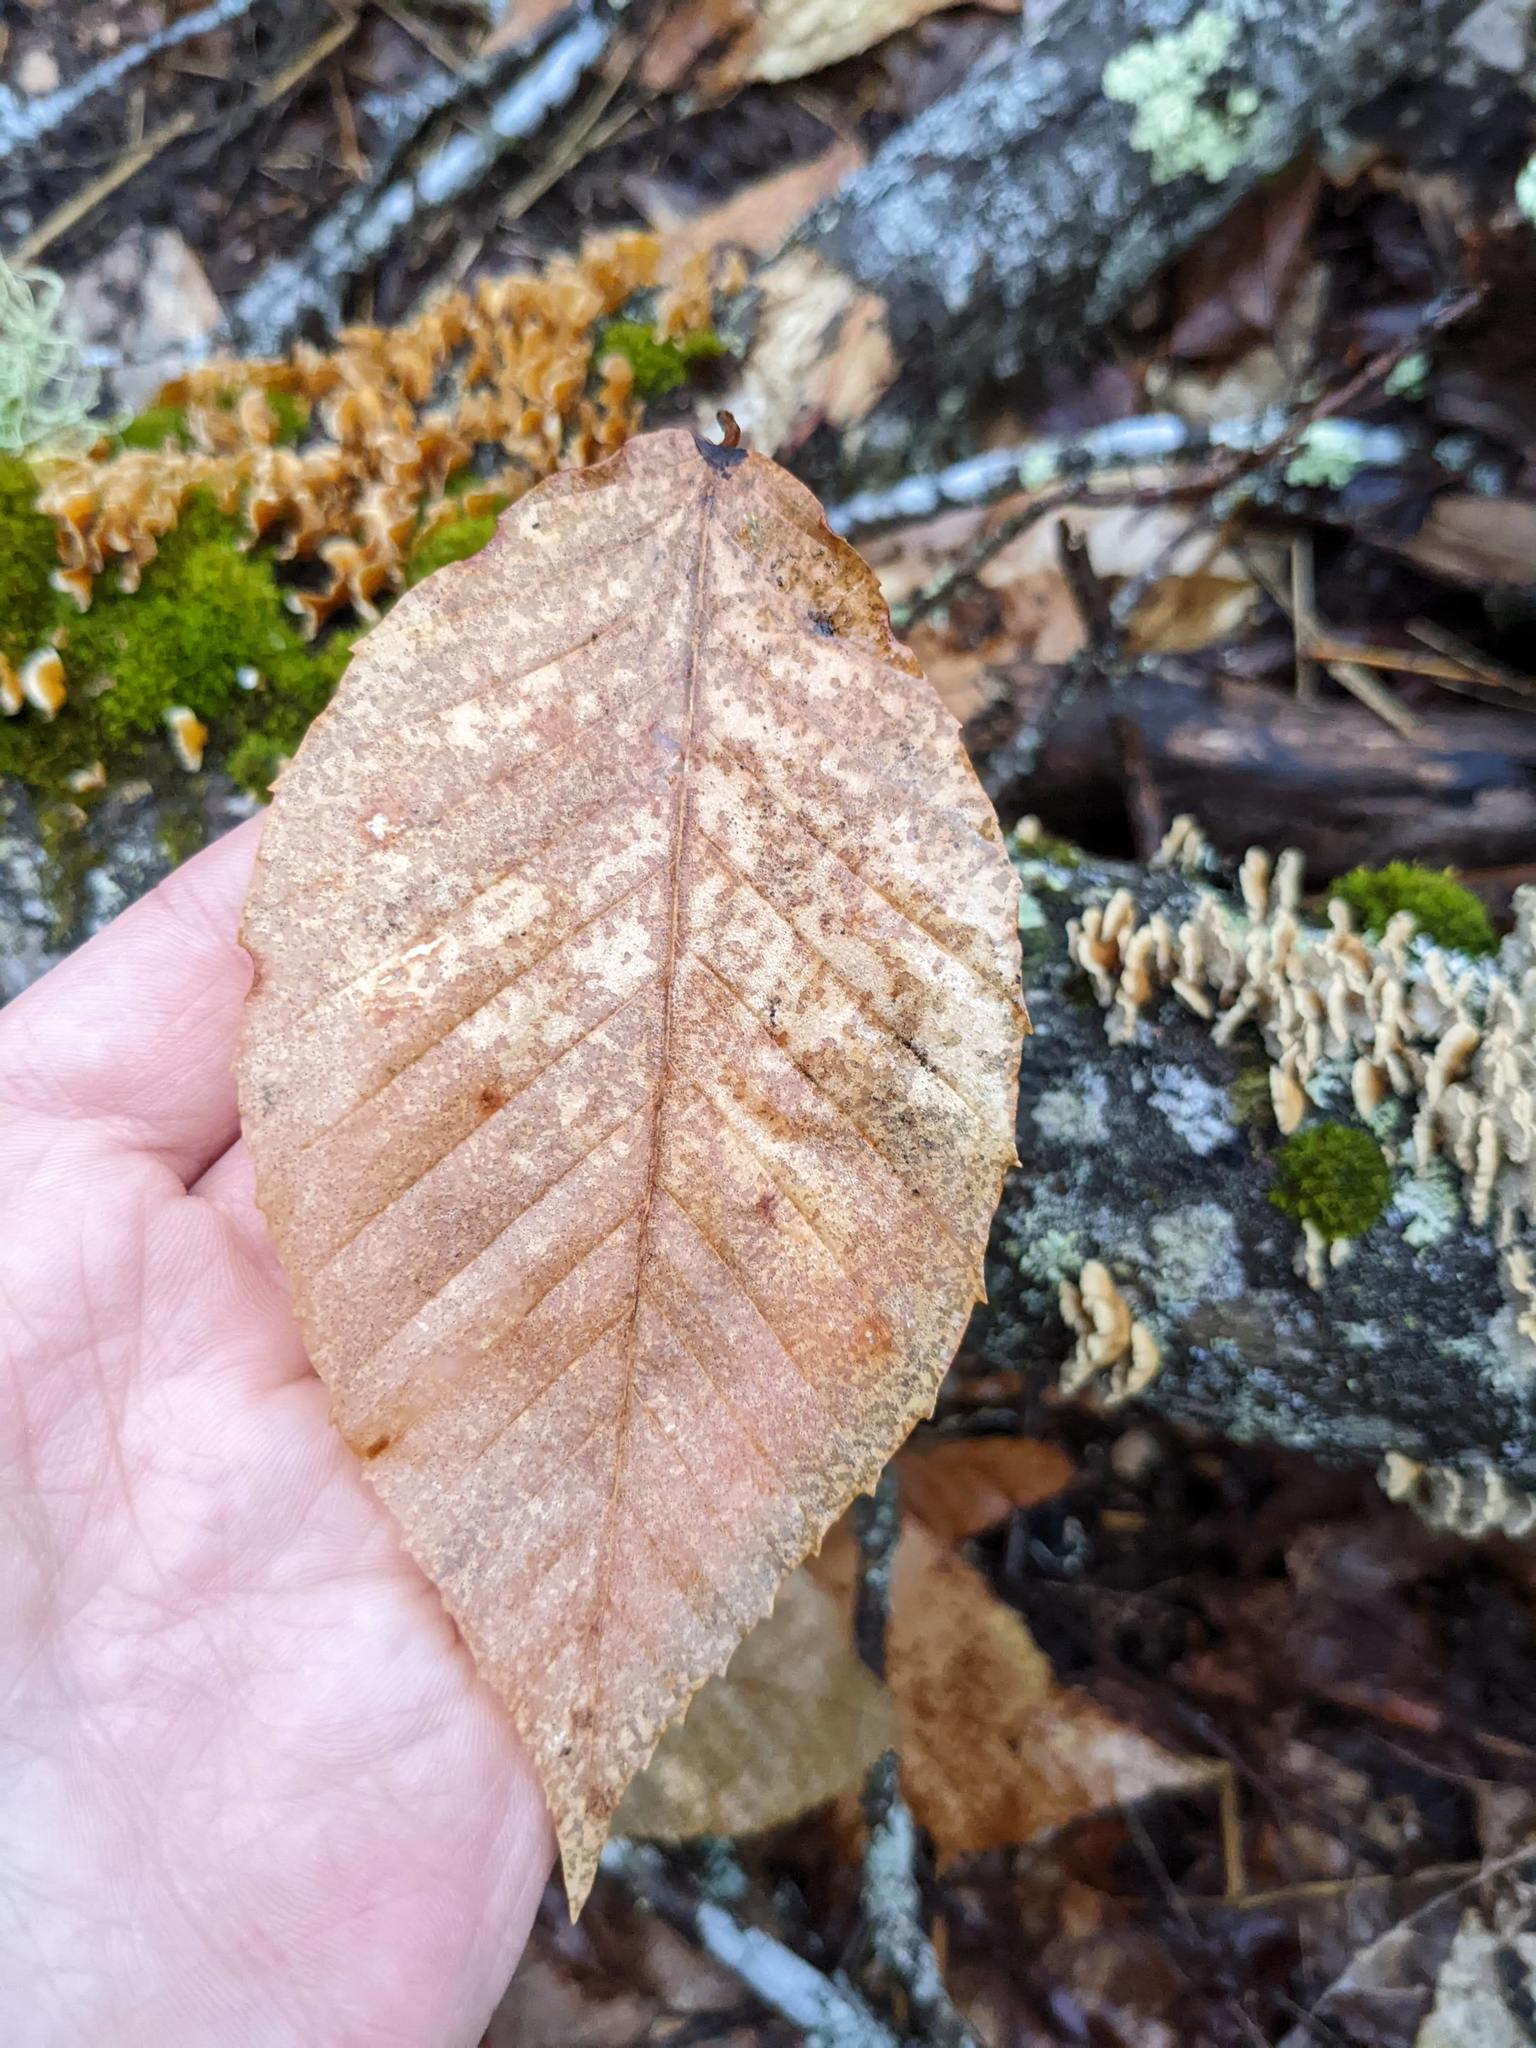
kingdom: Plantae
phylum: Tracheophyta
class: Magnoliopsida
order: Fagales
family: Fagaceae
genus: Fagus
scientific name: Fagus grandifolia
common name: American beech
